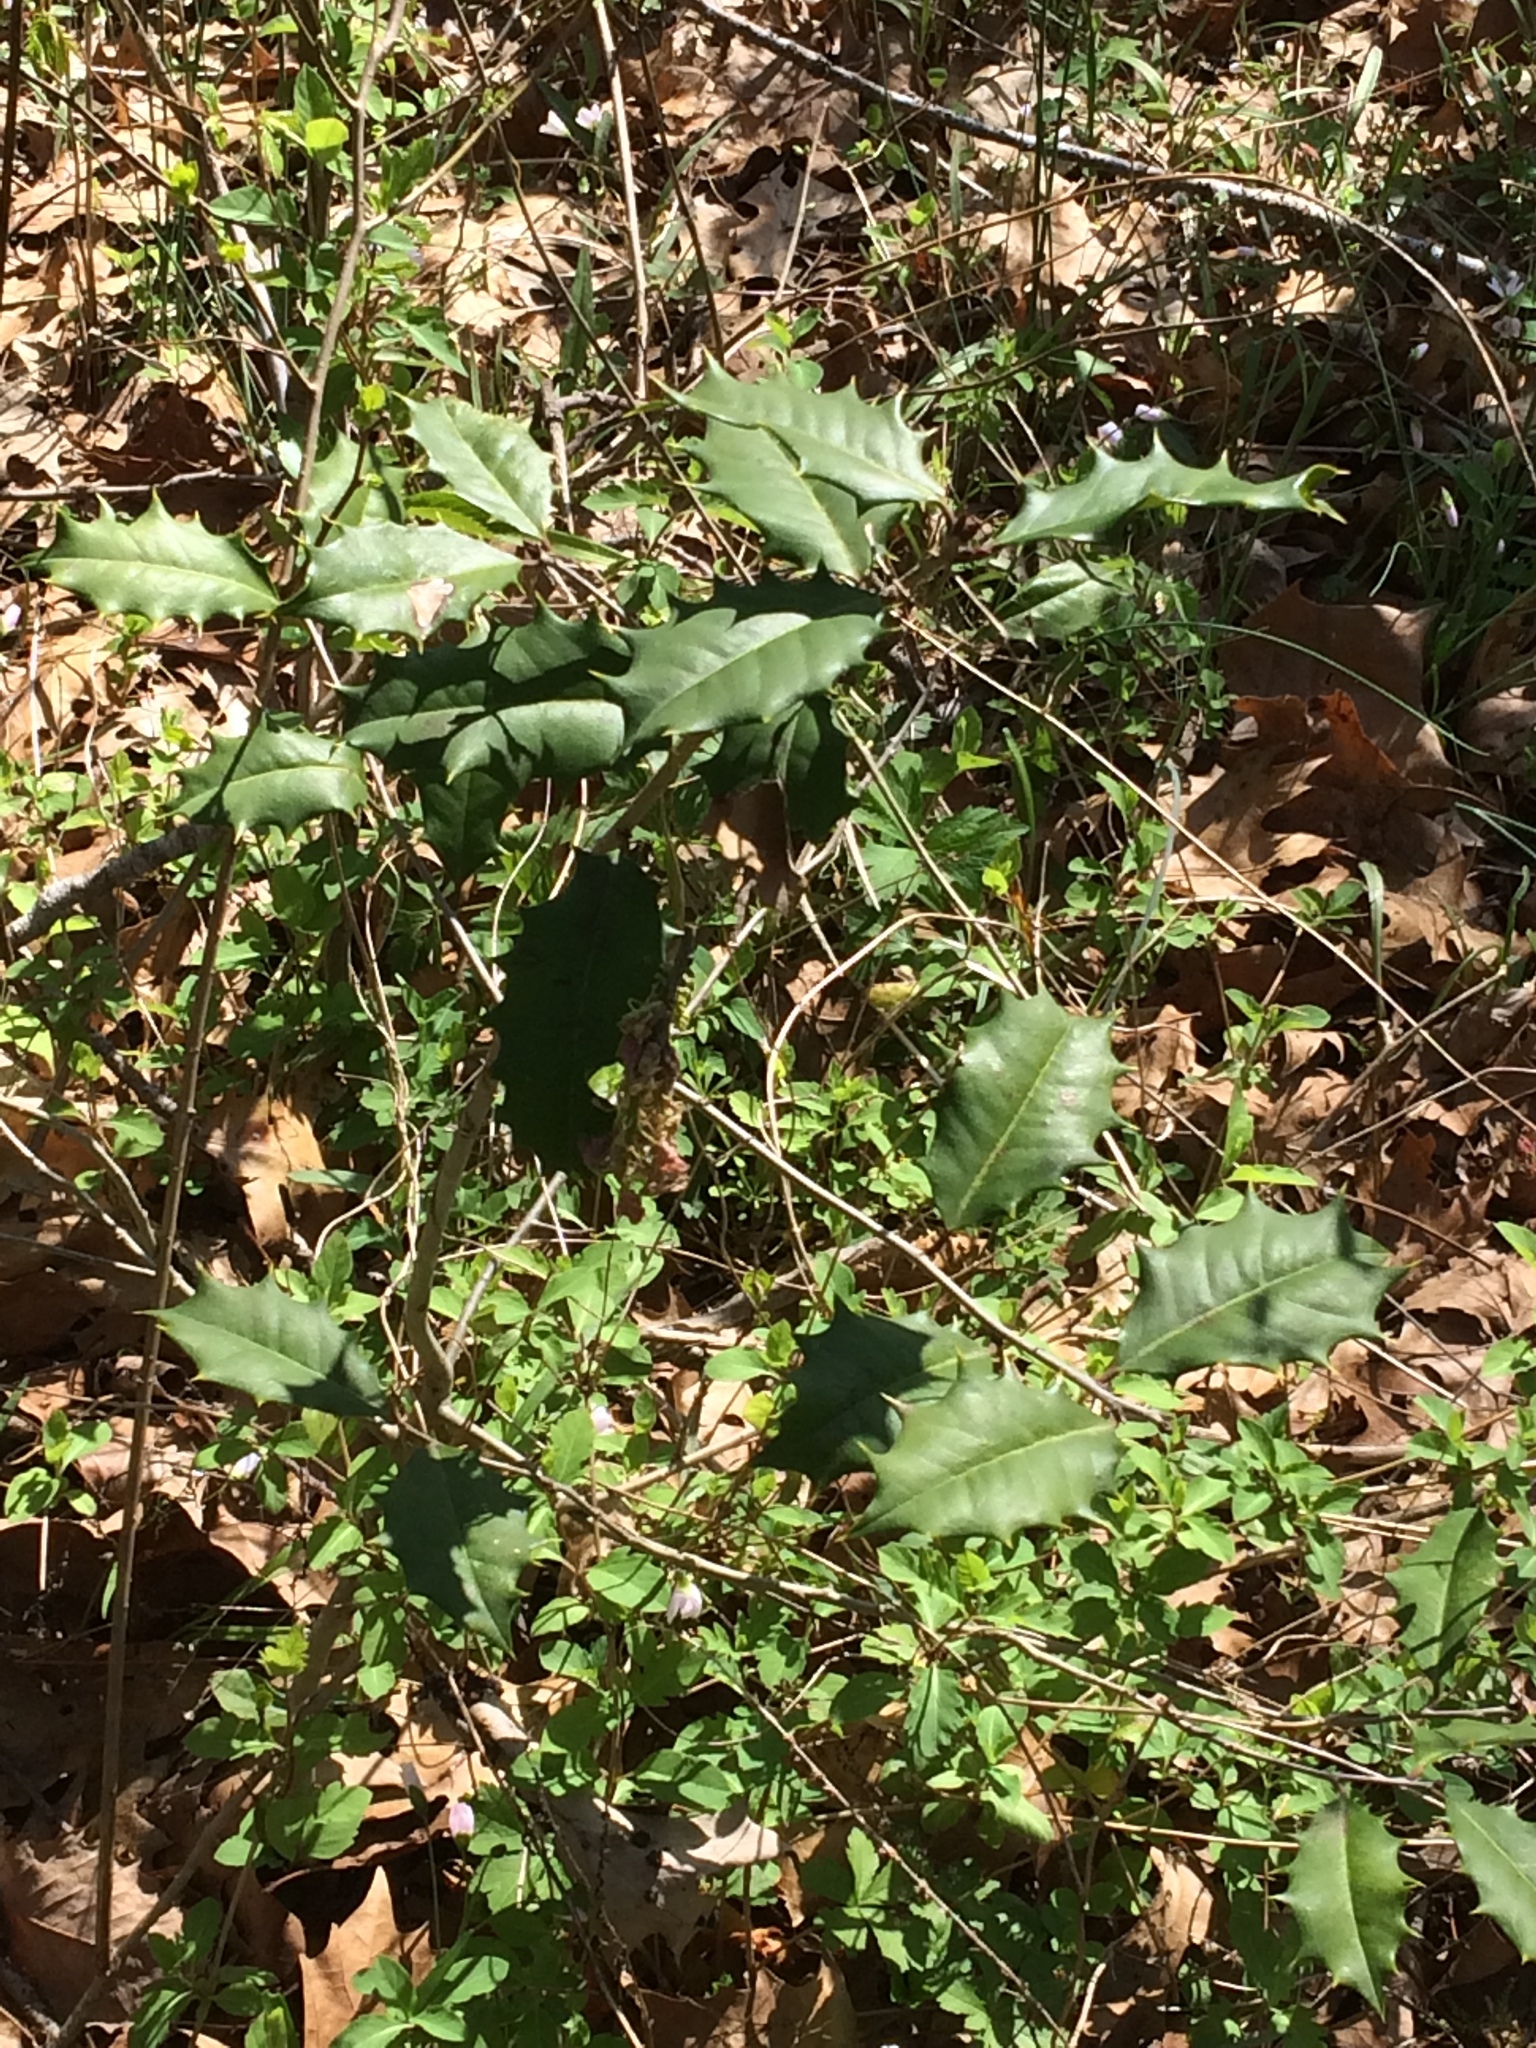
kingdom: Plantae
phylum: Tracheophyta
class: Magnoliopsida
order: Aquifoliales
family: Aquifoliaceae
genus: Ilex
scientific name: Ilex opaca
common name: American holly
